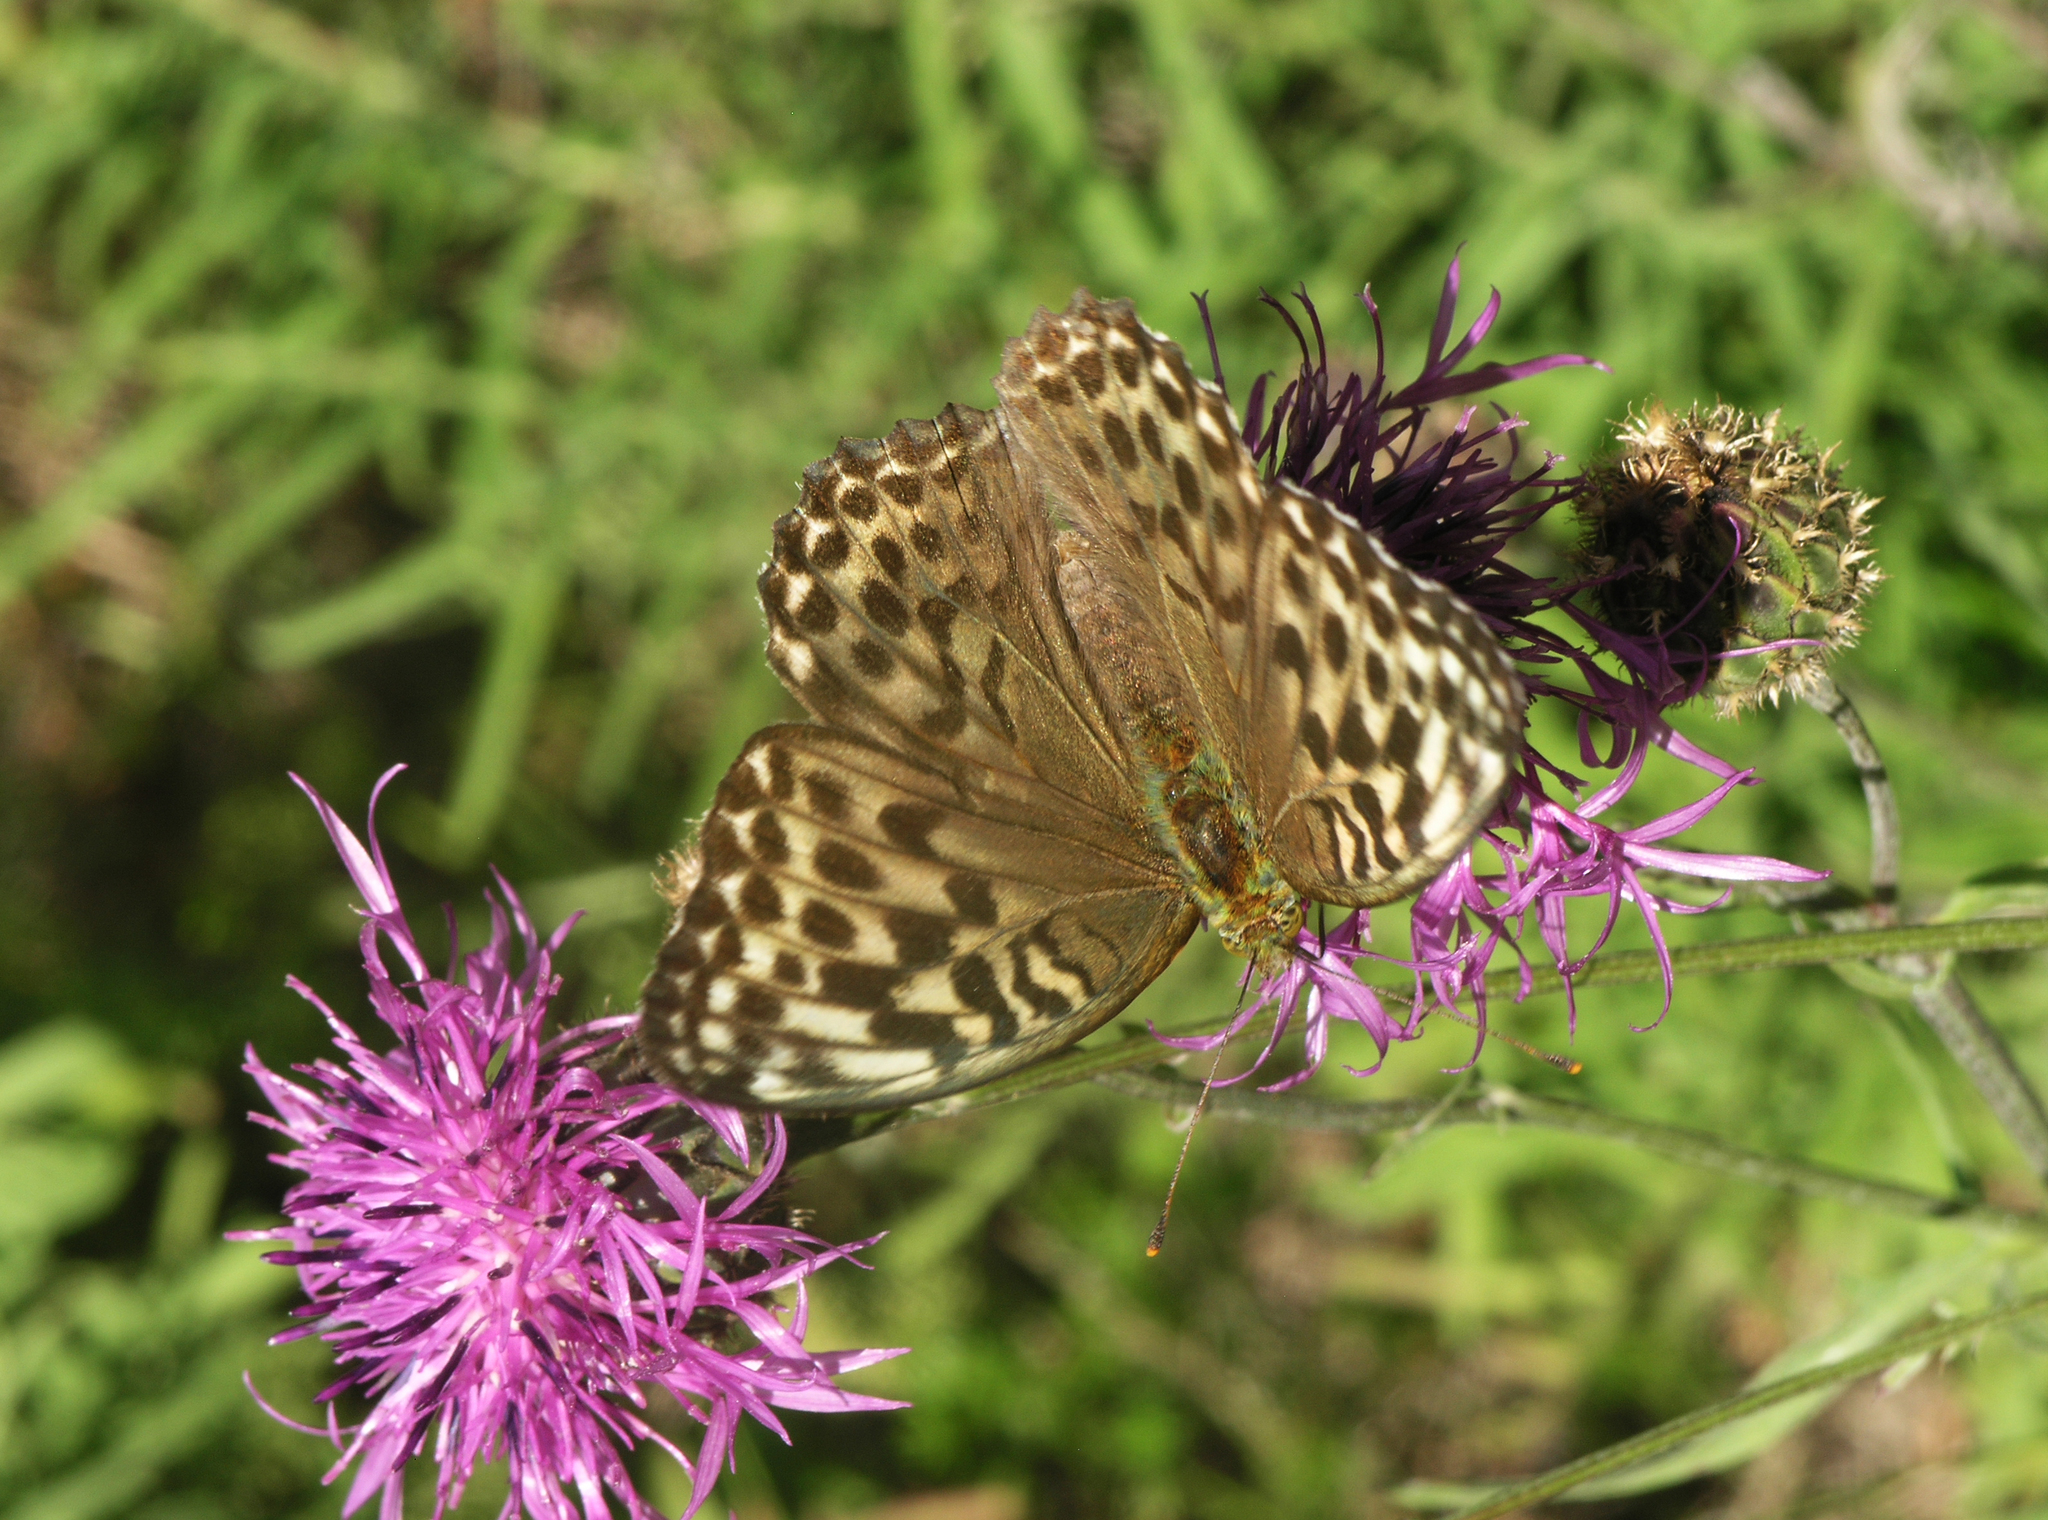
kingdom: Animalia
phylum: Arthropoda
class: Insecta
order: Lepidoptera
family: Nymphalidae
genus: Argynnis
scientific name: Argynnis paphia
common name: Silver-washed fritillary
